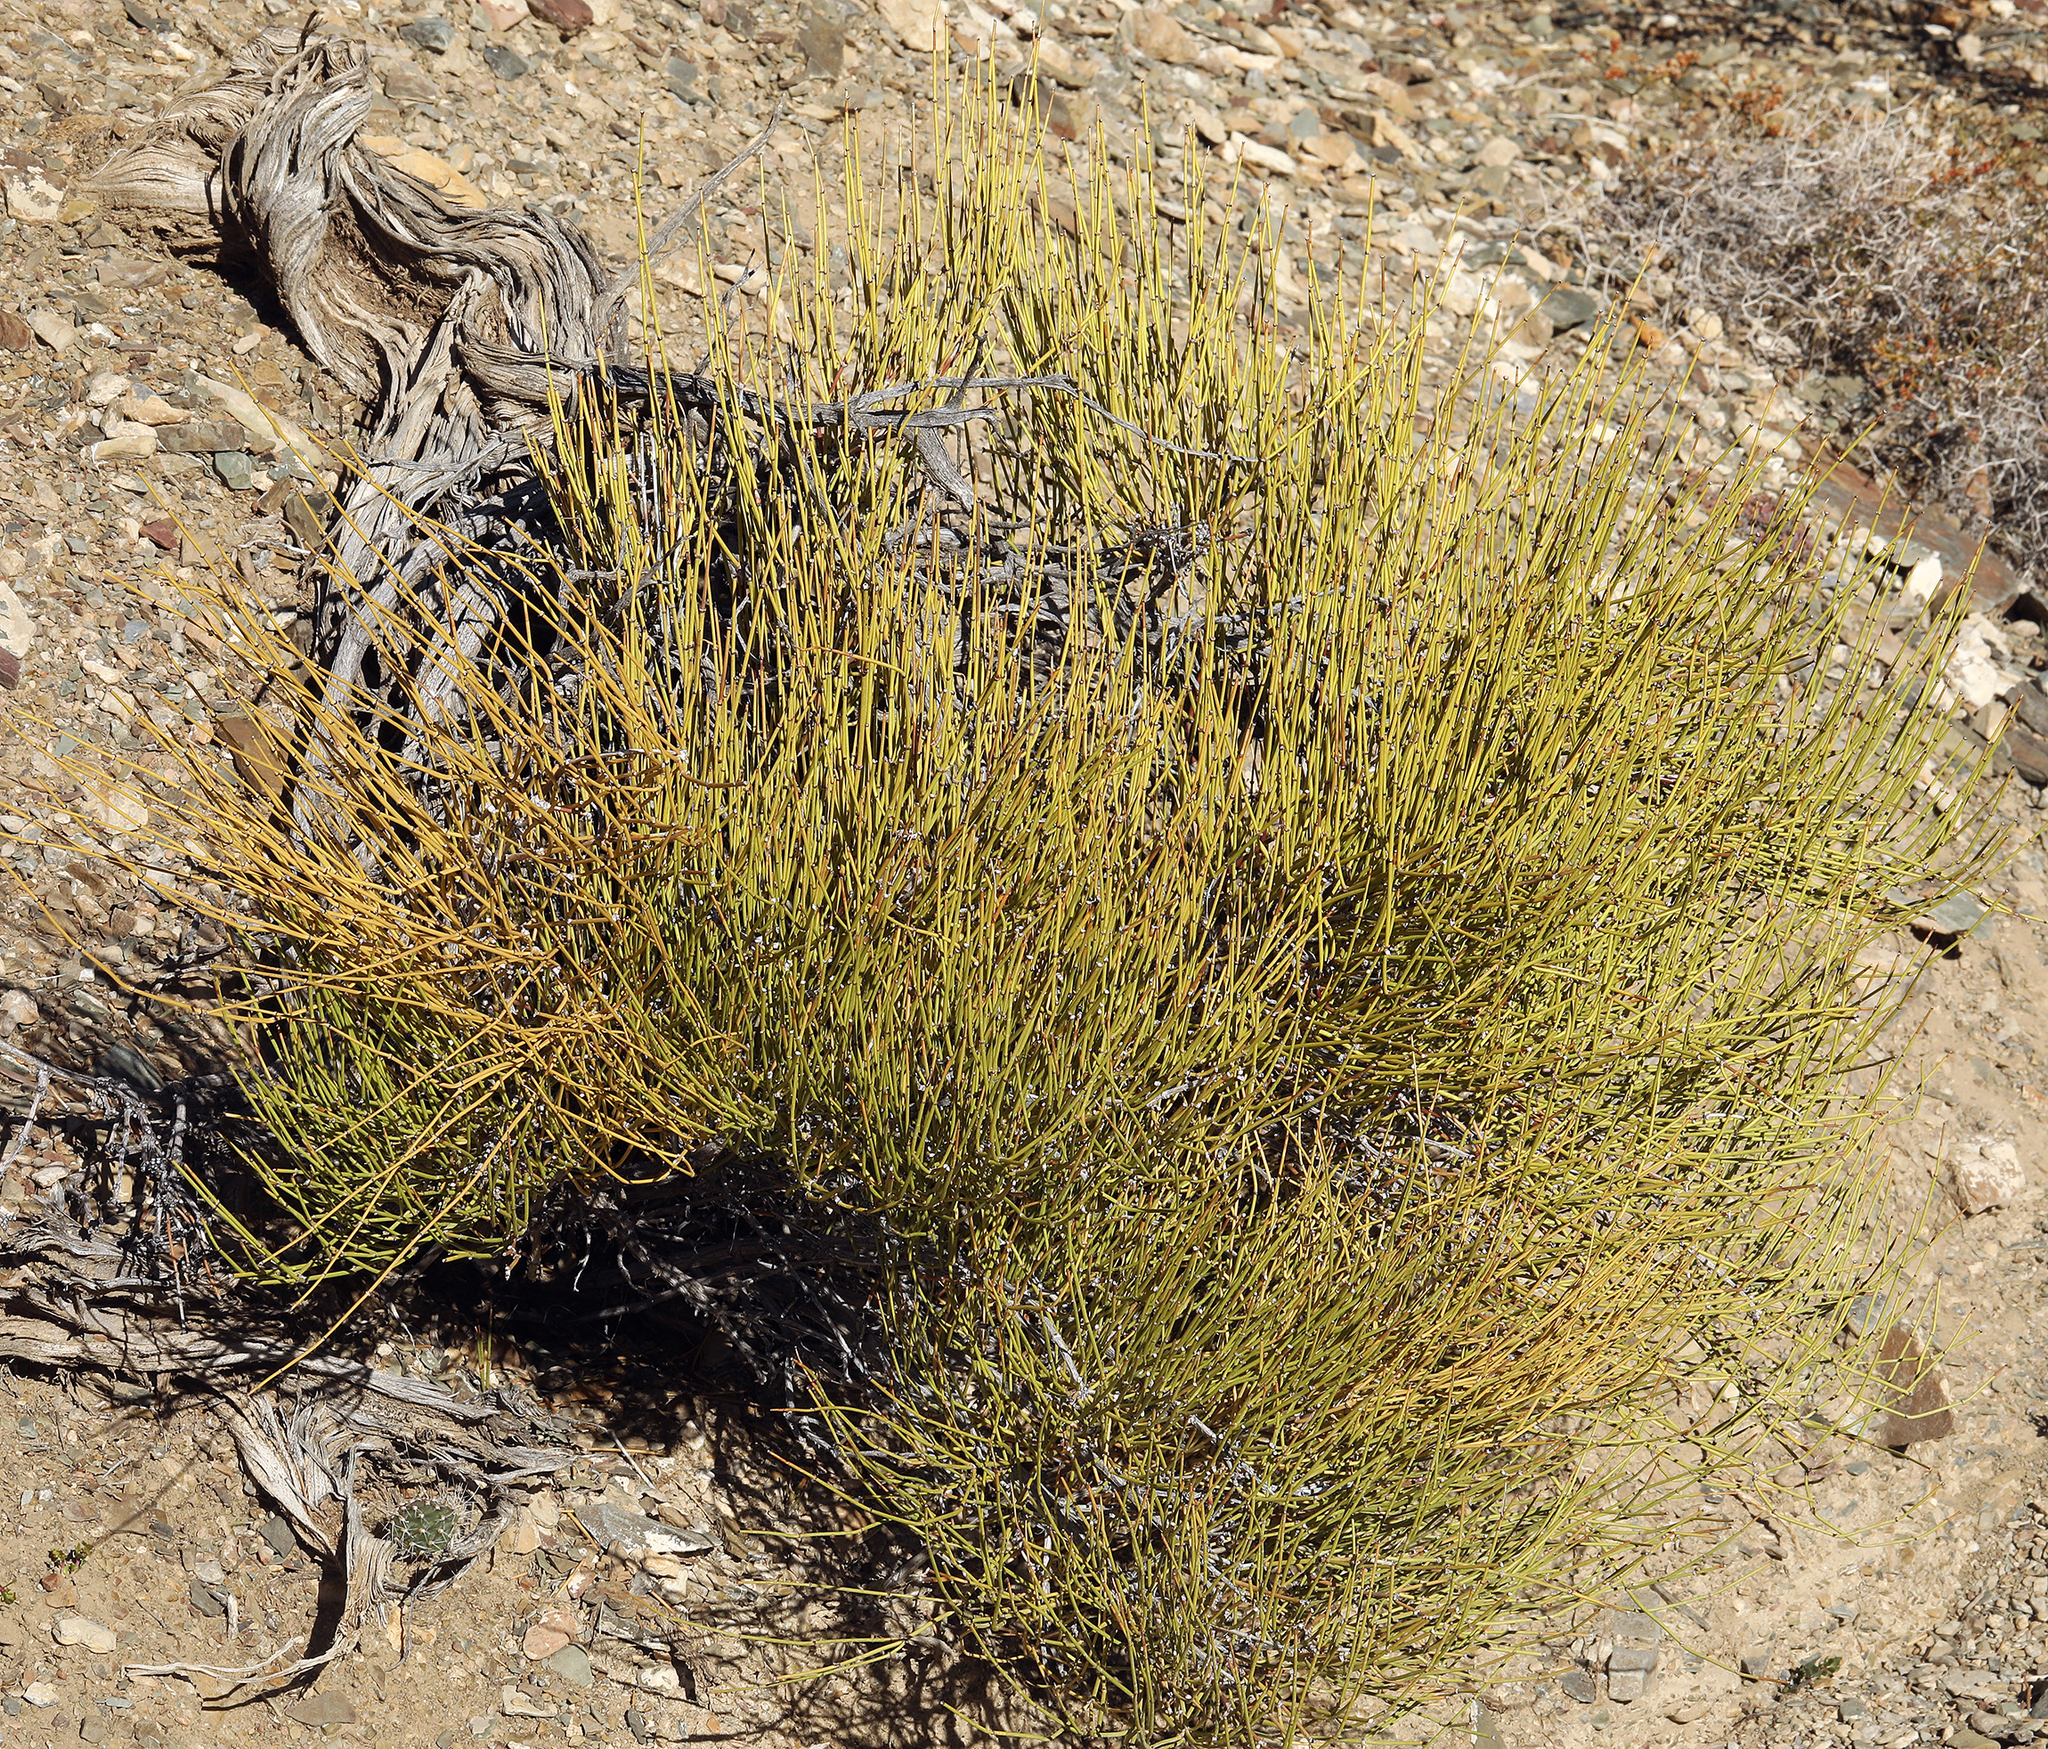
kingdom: Plantae
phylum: Tracheophyta
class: Gnetopsida
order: Ephedrales
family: Ephedraceae
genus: Ephedra
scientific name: Ephedra viridis
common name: Green ephedra
